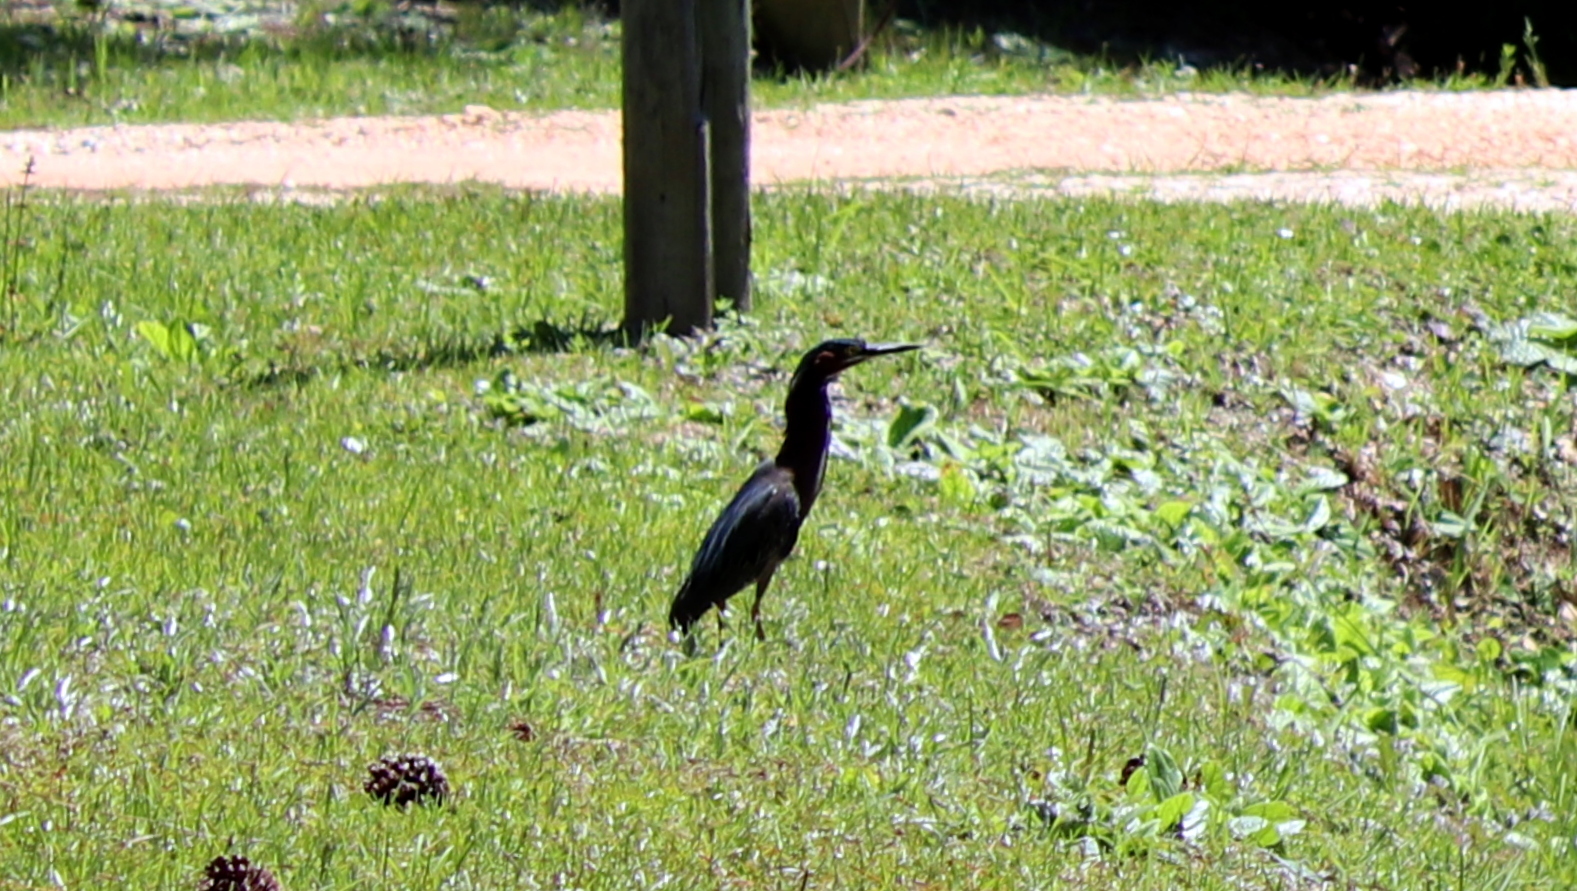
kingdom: Animalia
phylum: Chordata
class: Aves
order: Pelecaniformes
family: Ardeidae
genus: Butorides
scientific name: Butorides virescens
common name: Green heron
